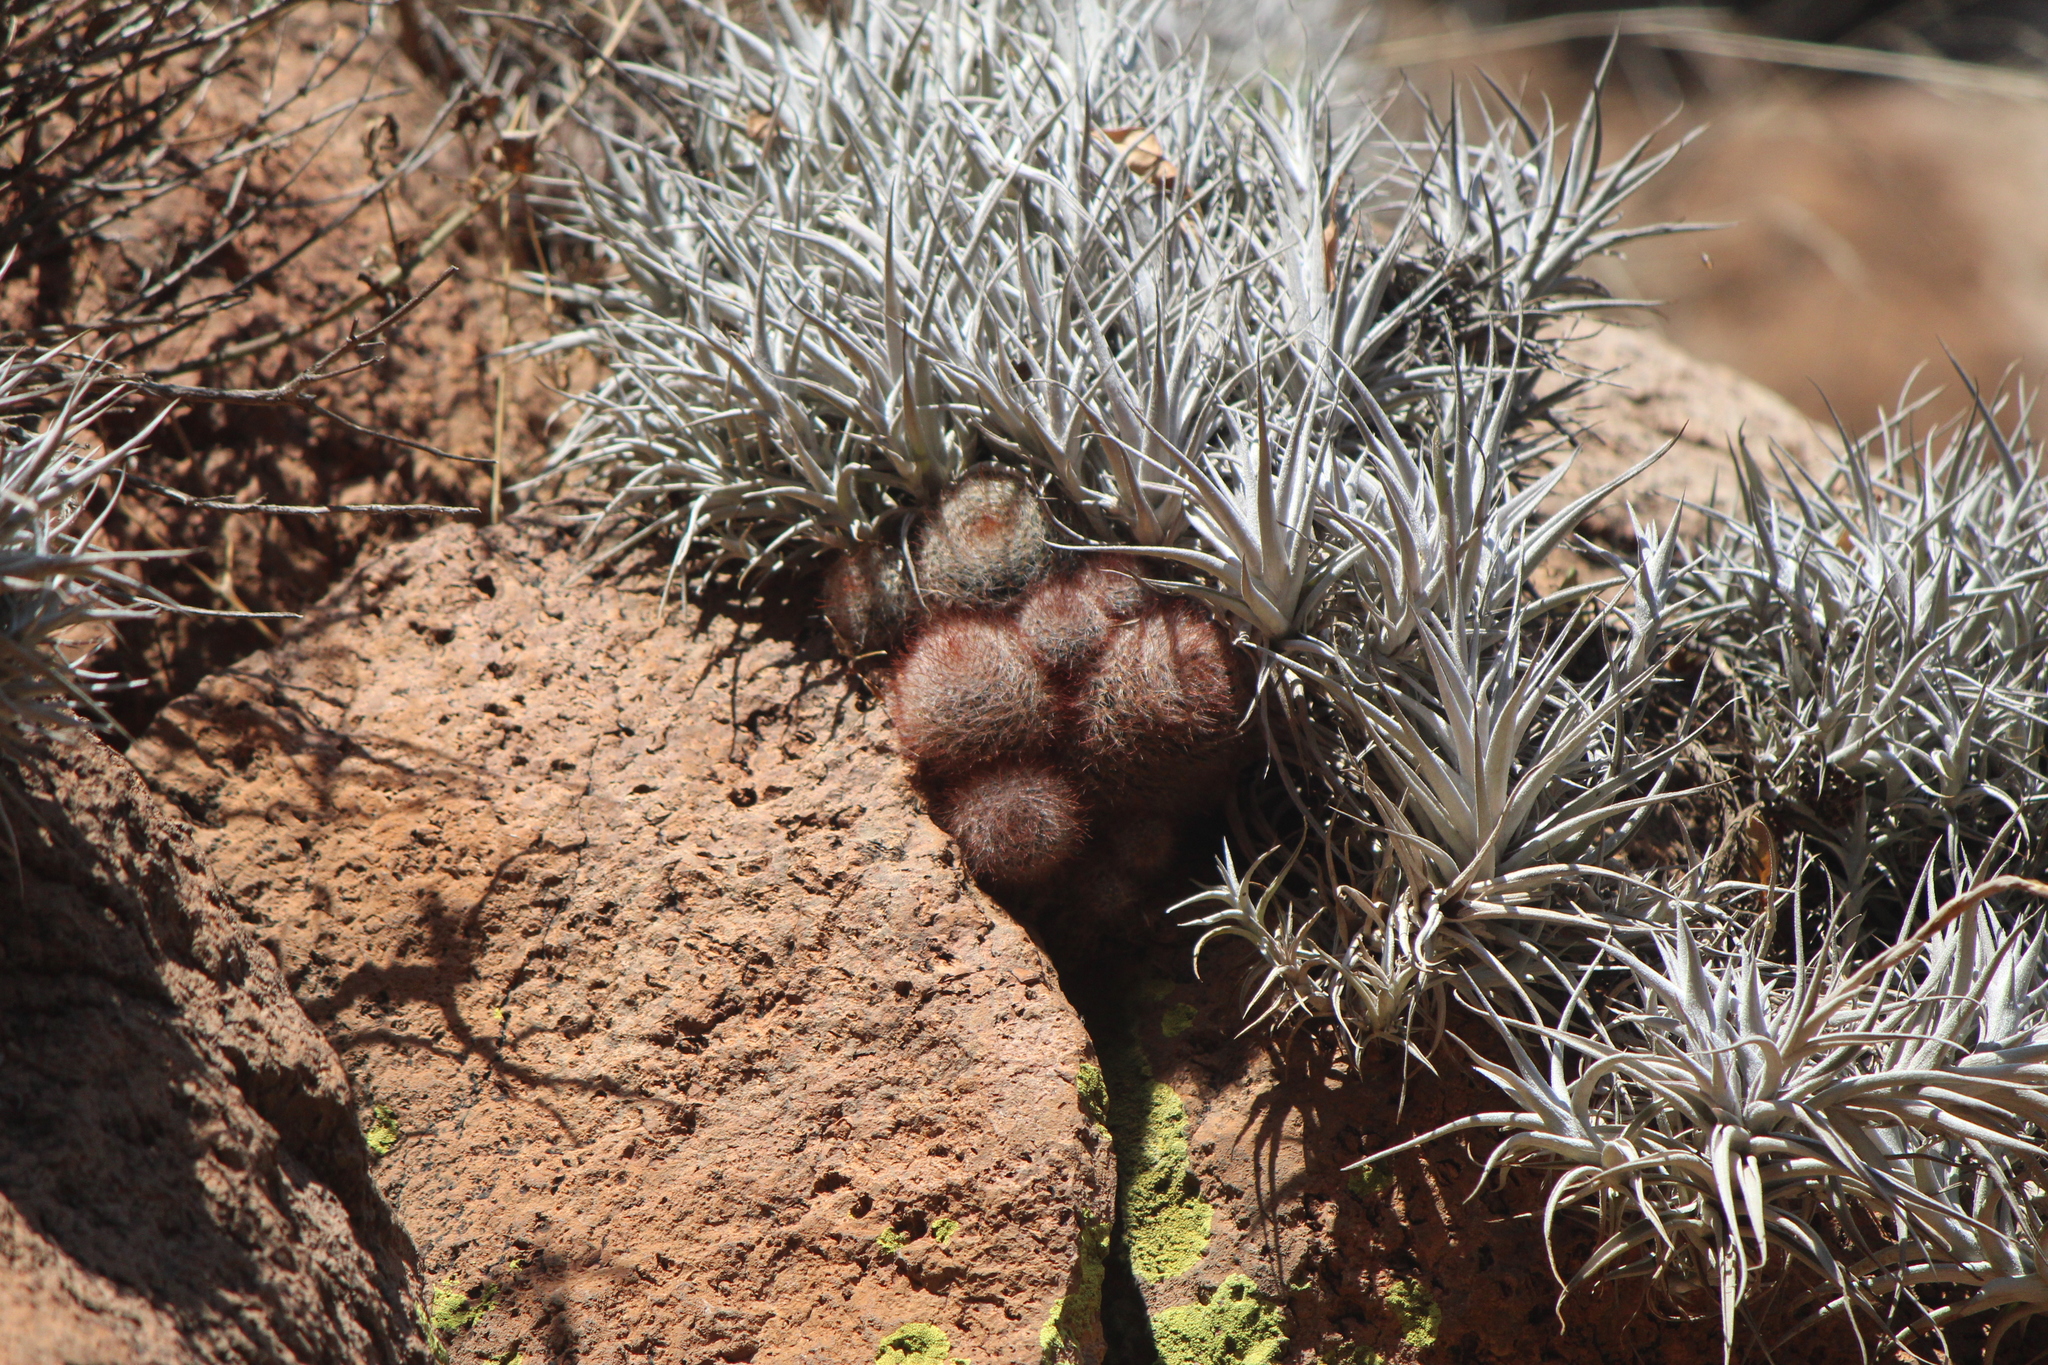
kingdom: Plantae
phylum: Tracheophyta
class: Magnoliopsida
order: Caryophyllales
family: Cactaceae
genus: Mammillaria
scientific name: Mammillaria crinita
